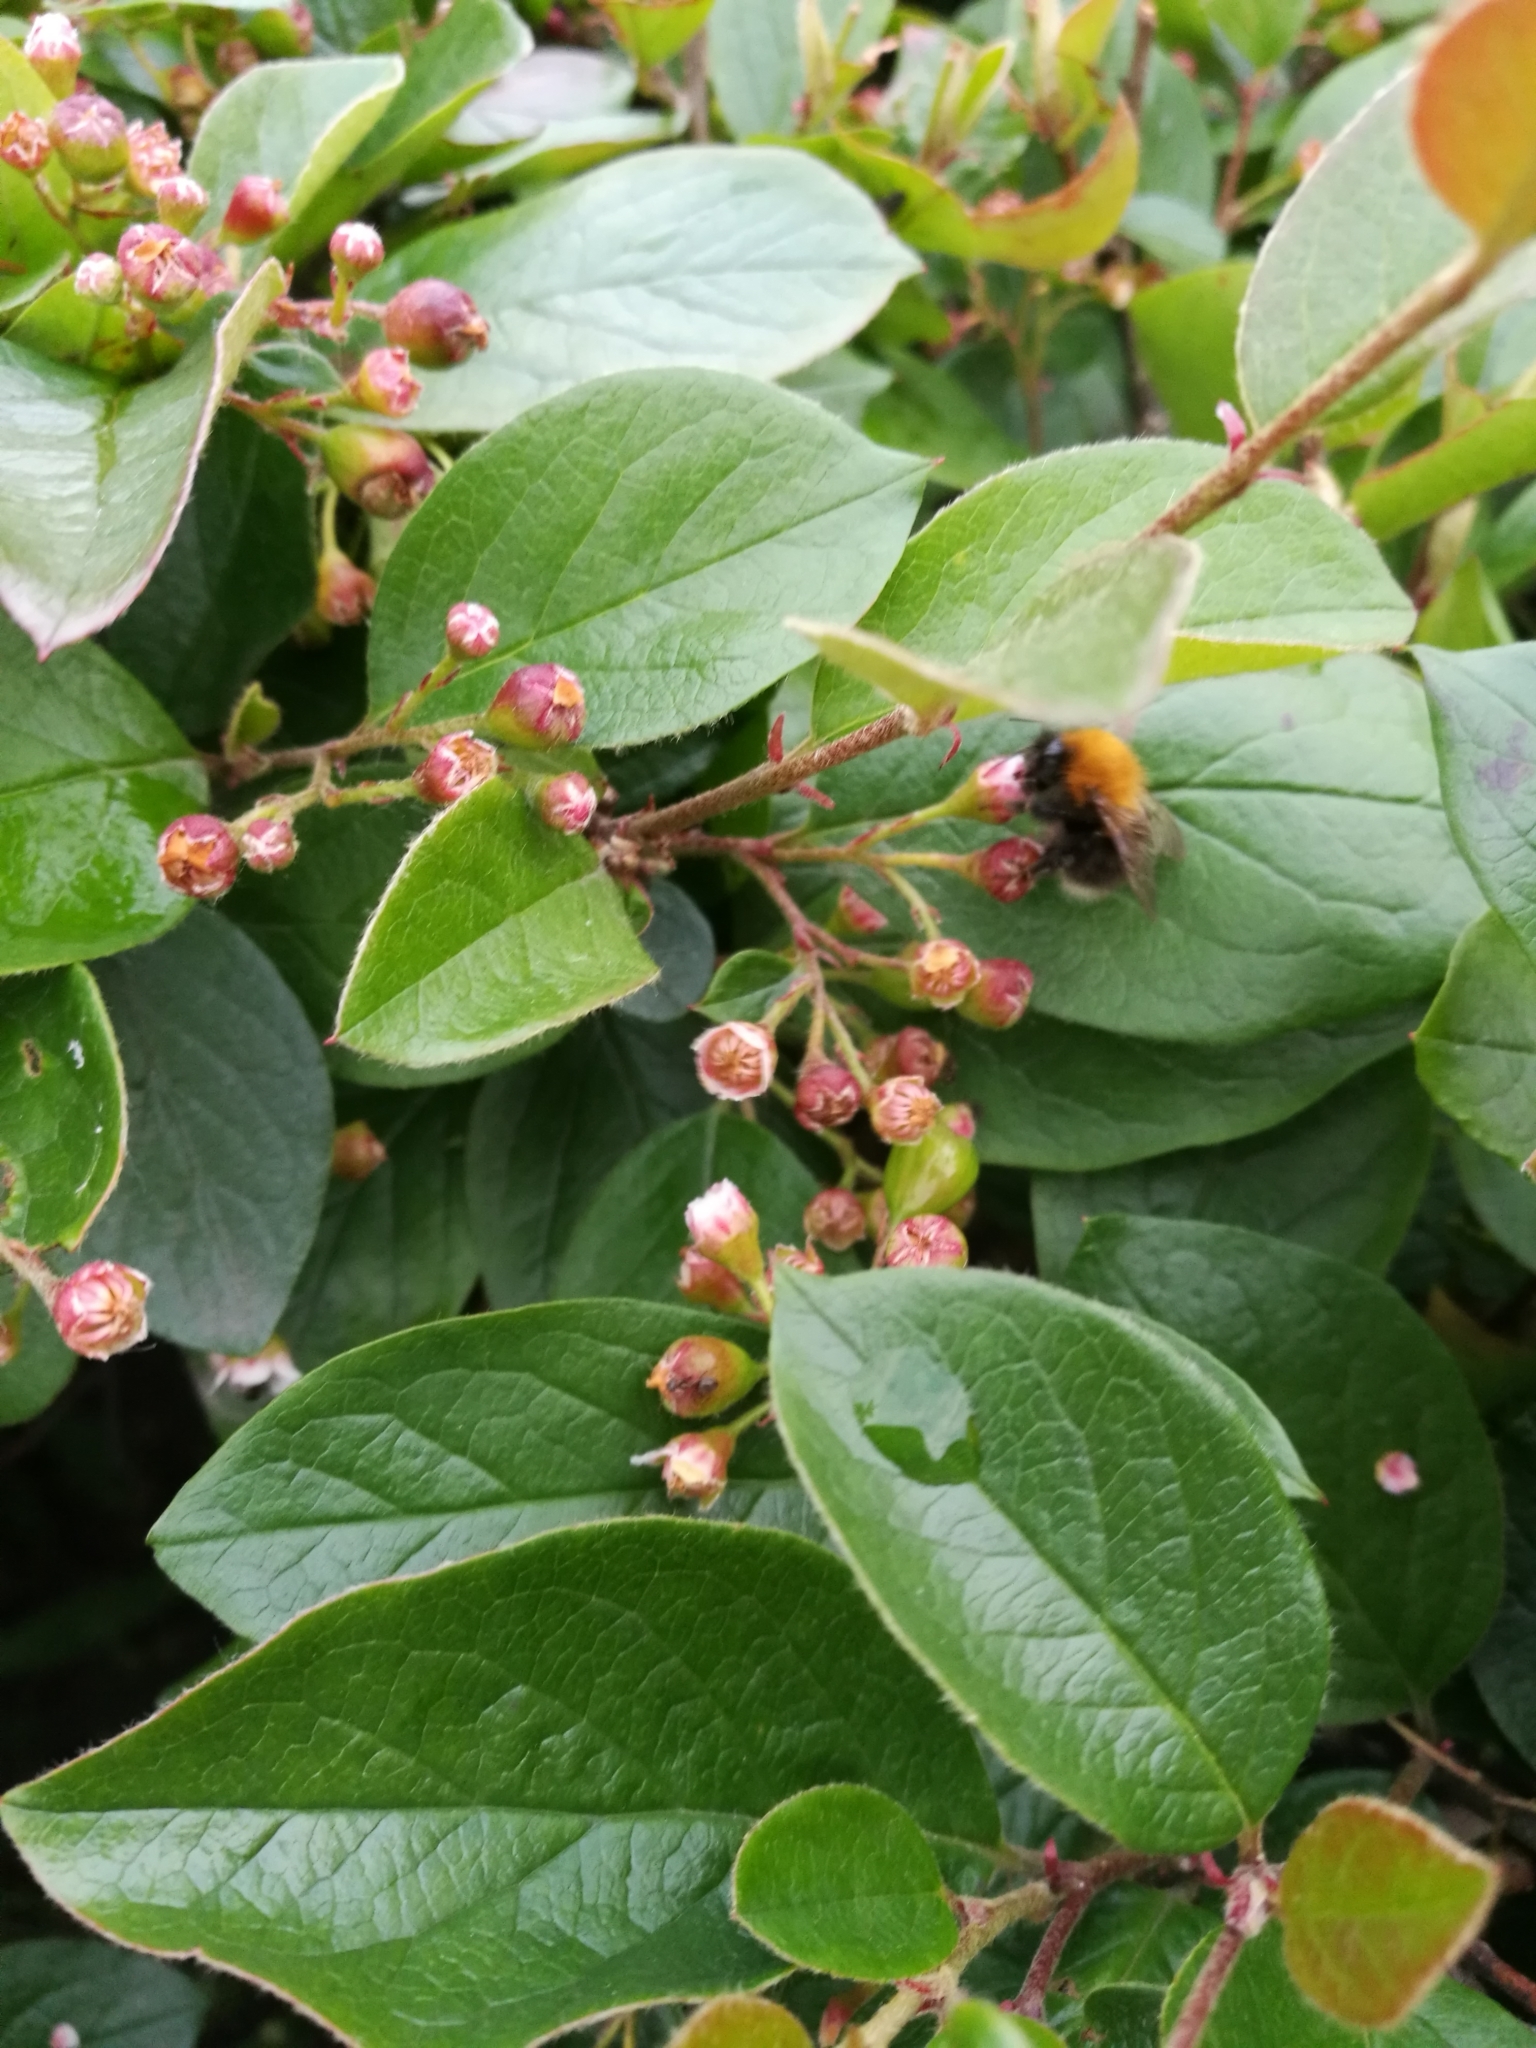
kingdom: Animalia
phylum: Arthropoda
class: Insecta
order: Hymenoptera
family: Apidae
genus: Bombus
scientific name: Bombus hypnorum
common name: New garden bumblebee
